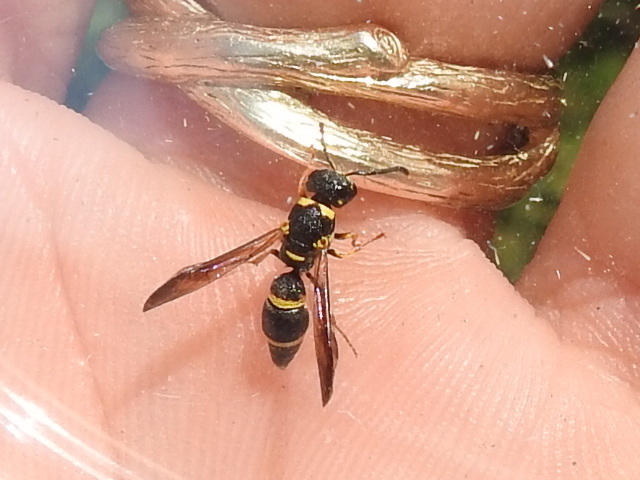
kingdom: Animalia
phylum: Arthropoda
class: Insecta
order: Hymenoptera
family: Eumenidae
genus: Parancistrocerus
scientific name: Parancistrocerus perennis
